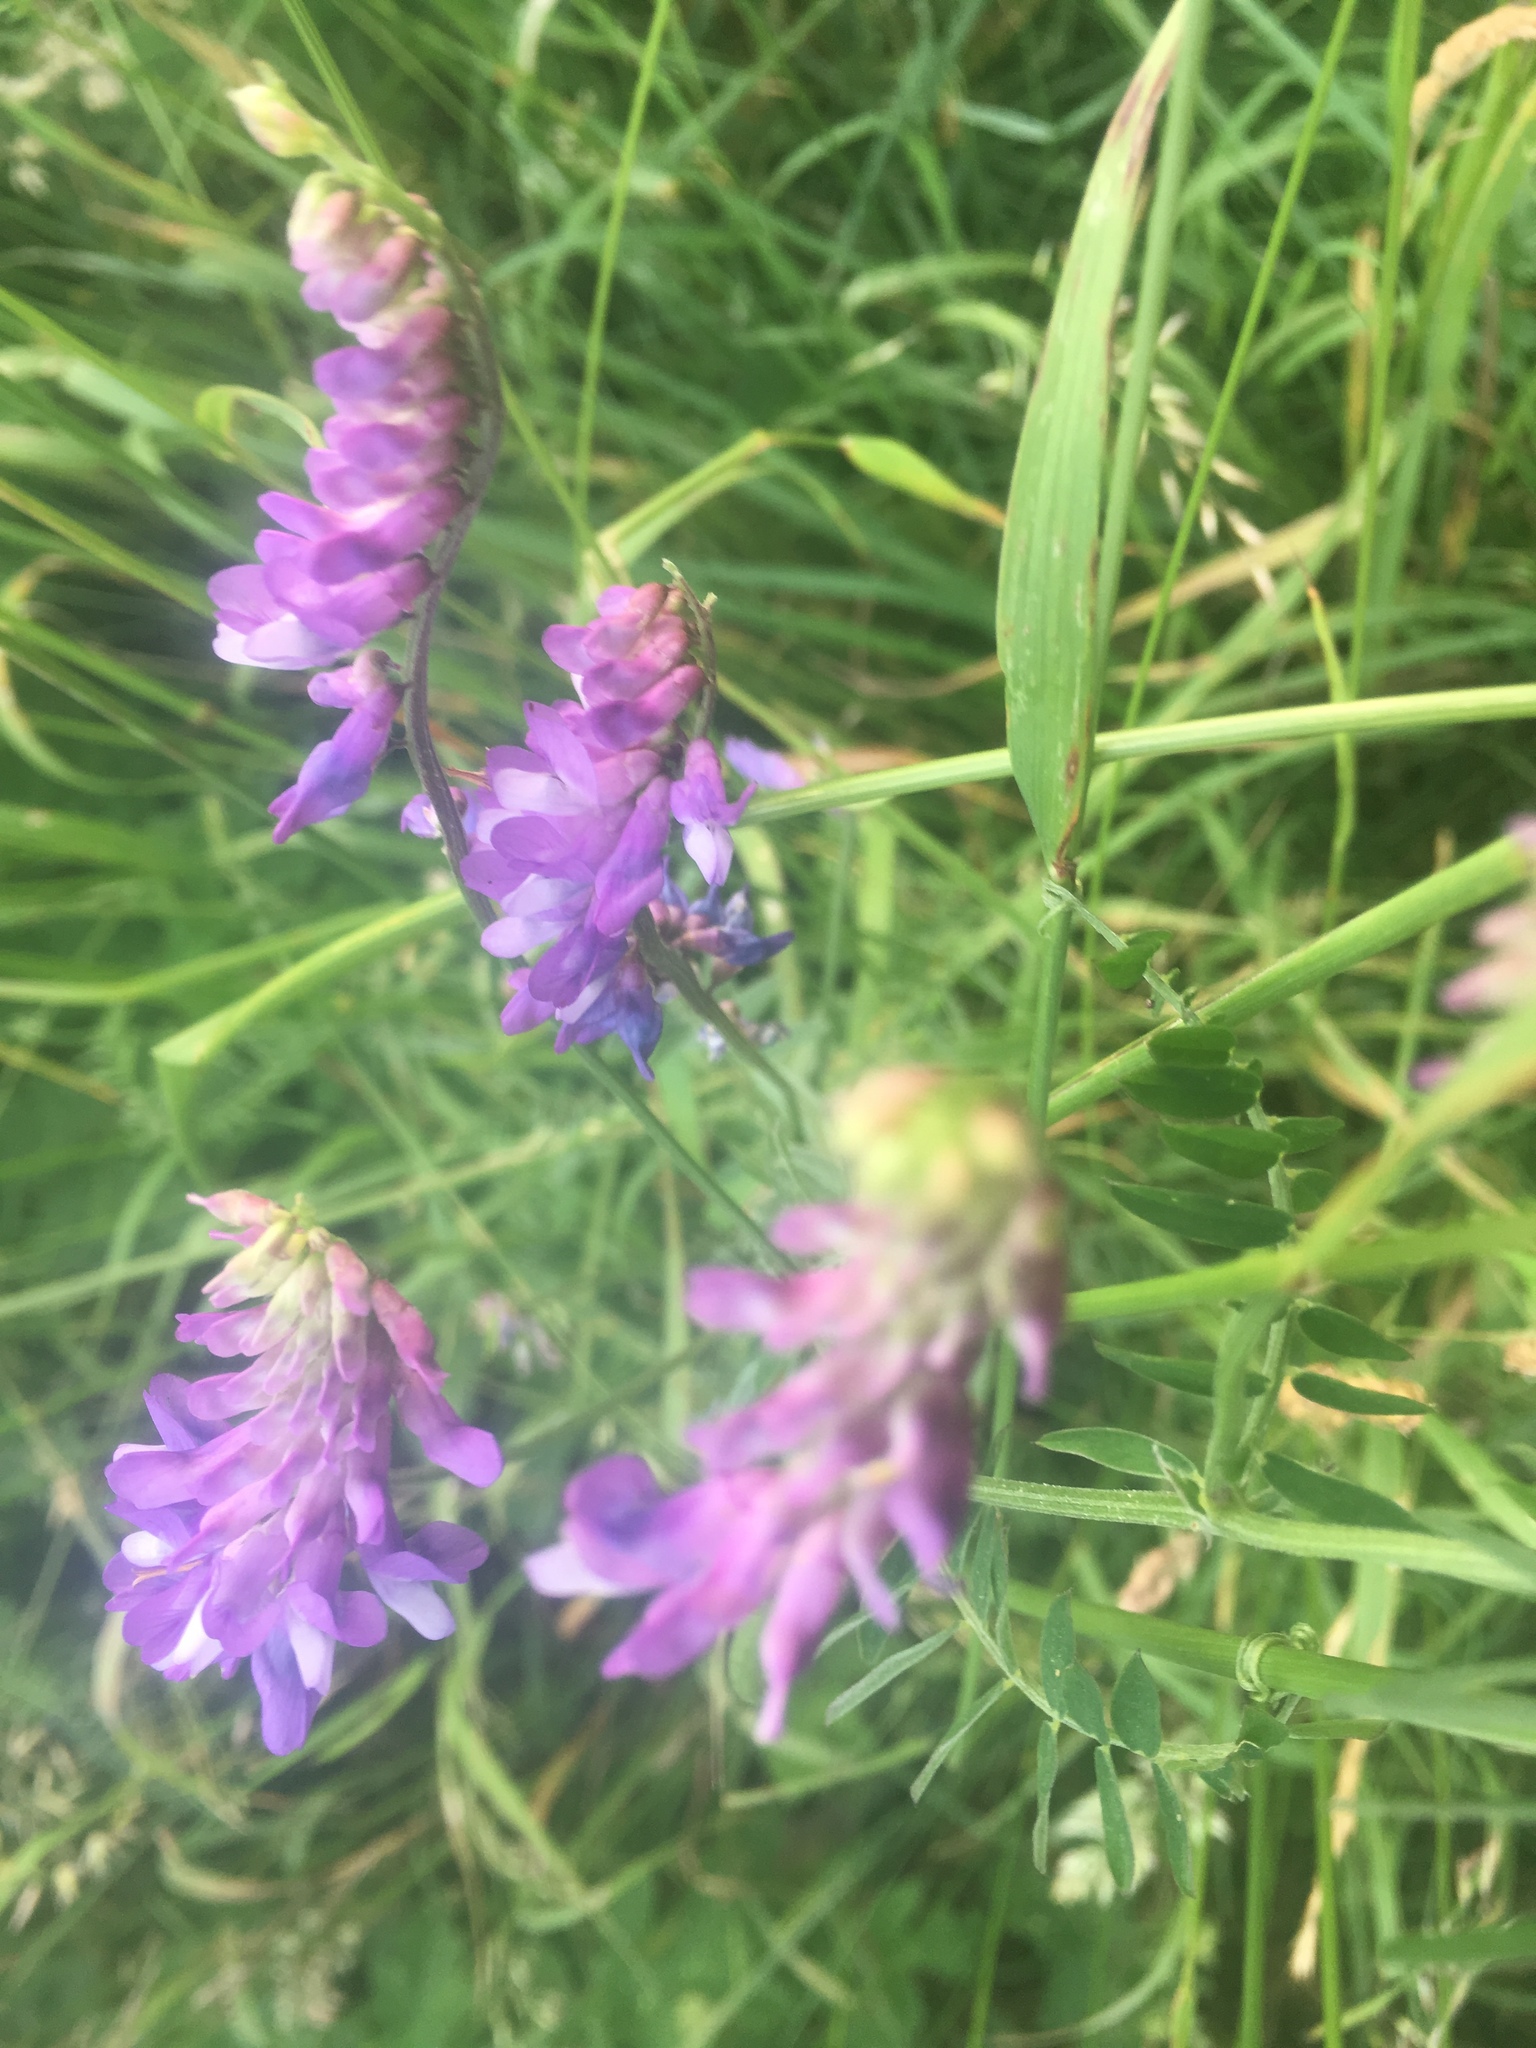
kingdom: Plantae
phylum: Tracheophyta
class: Magnoliopsida
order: Fabales
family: Fabaceae
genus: Vicia
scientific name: Vicia cracca
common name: Bird vetch
